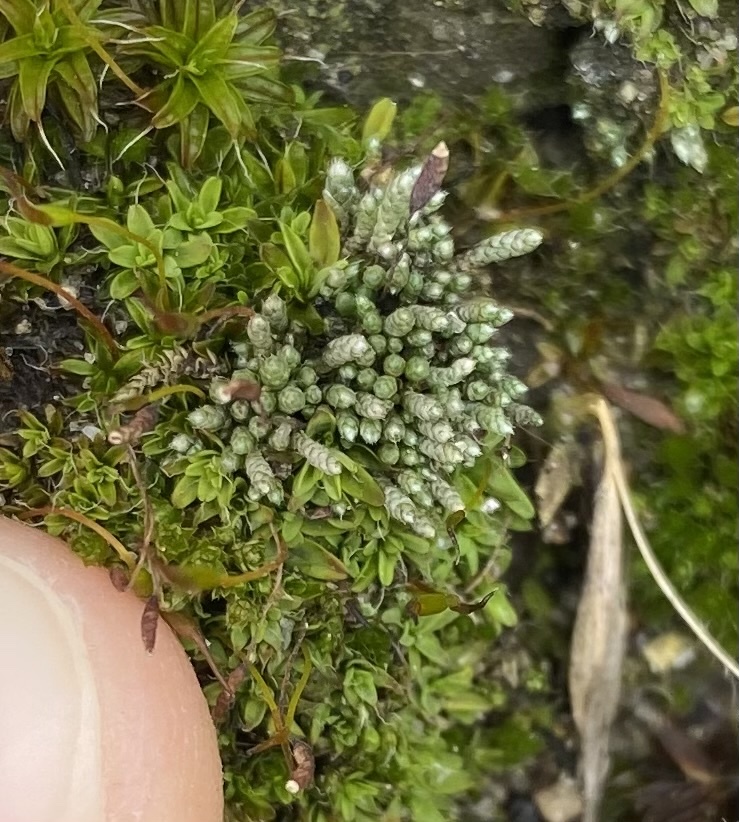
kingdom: Plantae
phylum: Bryophyta
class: Bryopsida
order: Bryales
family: Bryaceae
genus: Bryum
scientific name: Bryum argenteum
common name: Silver-moss
